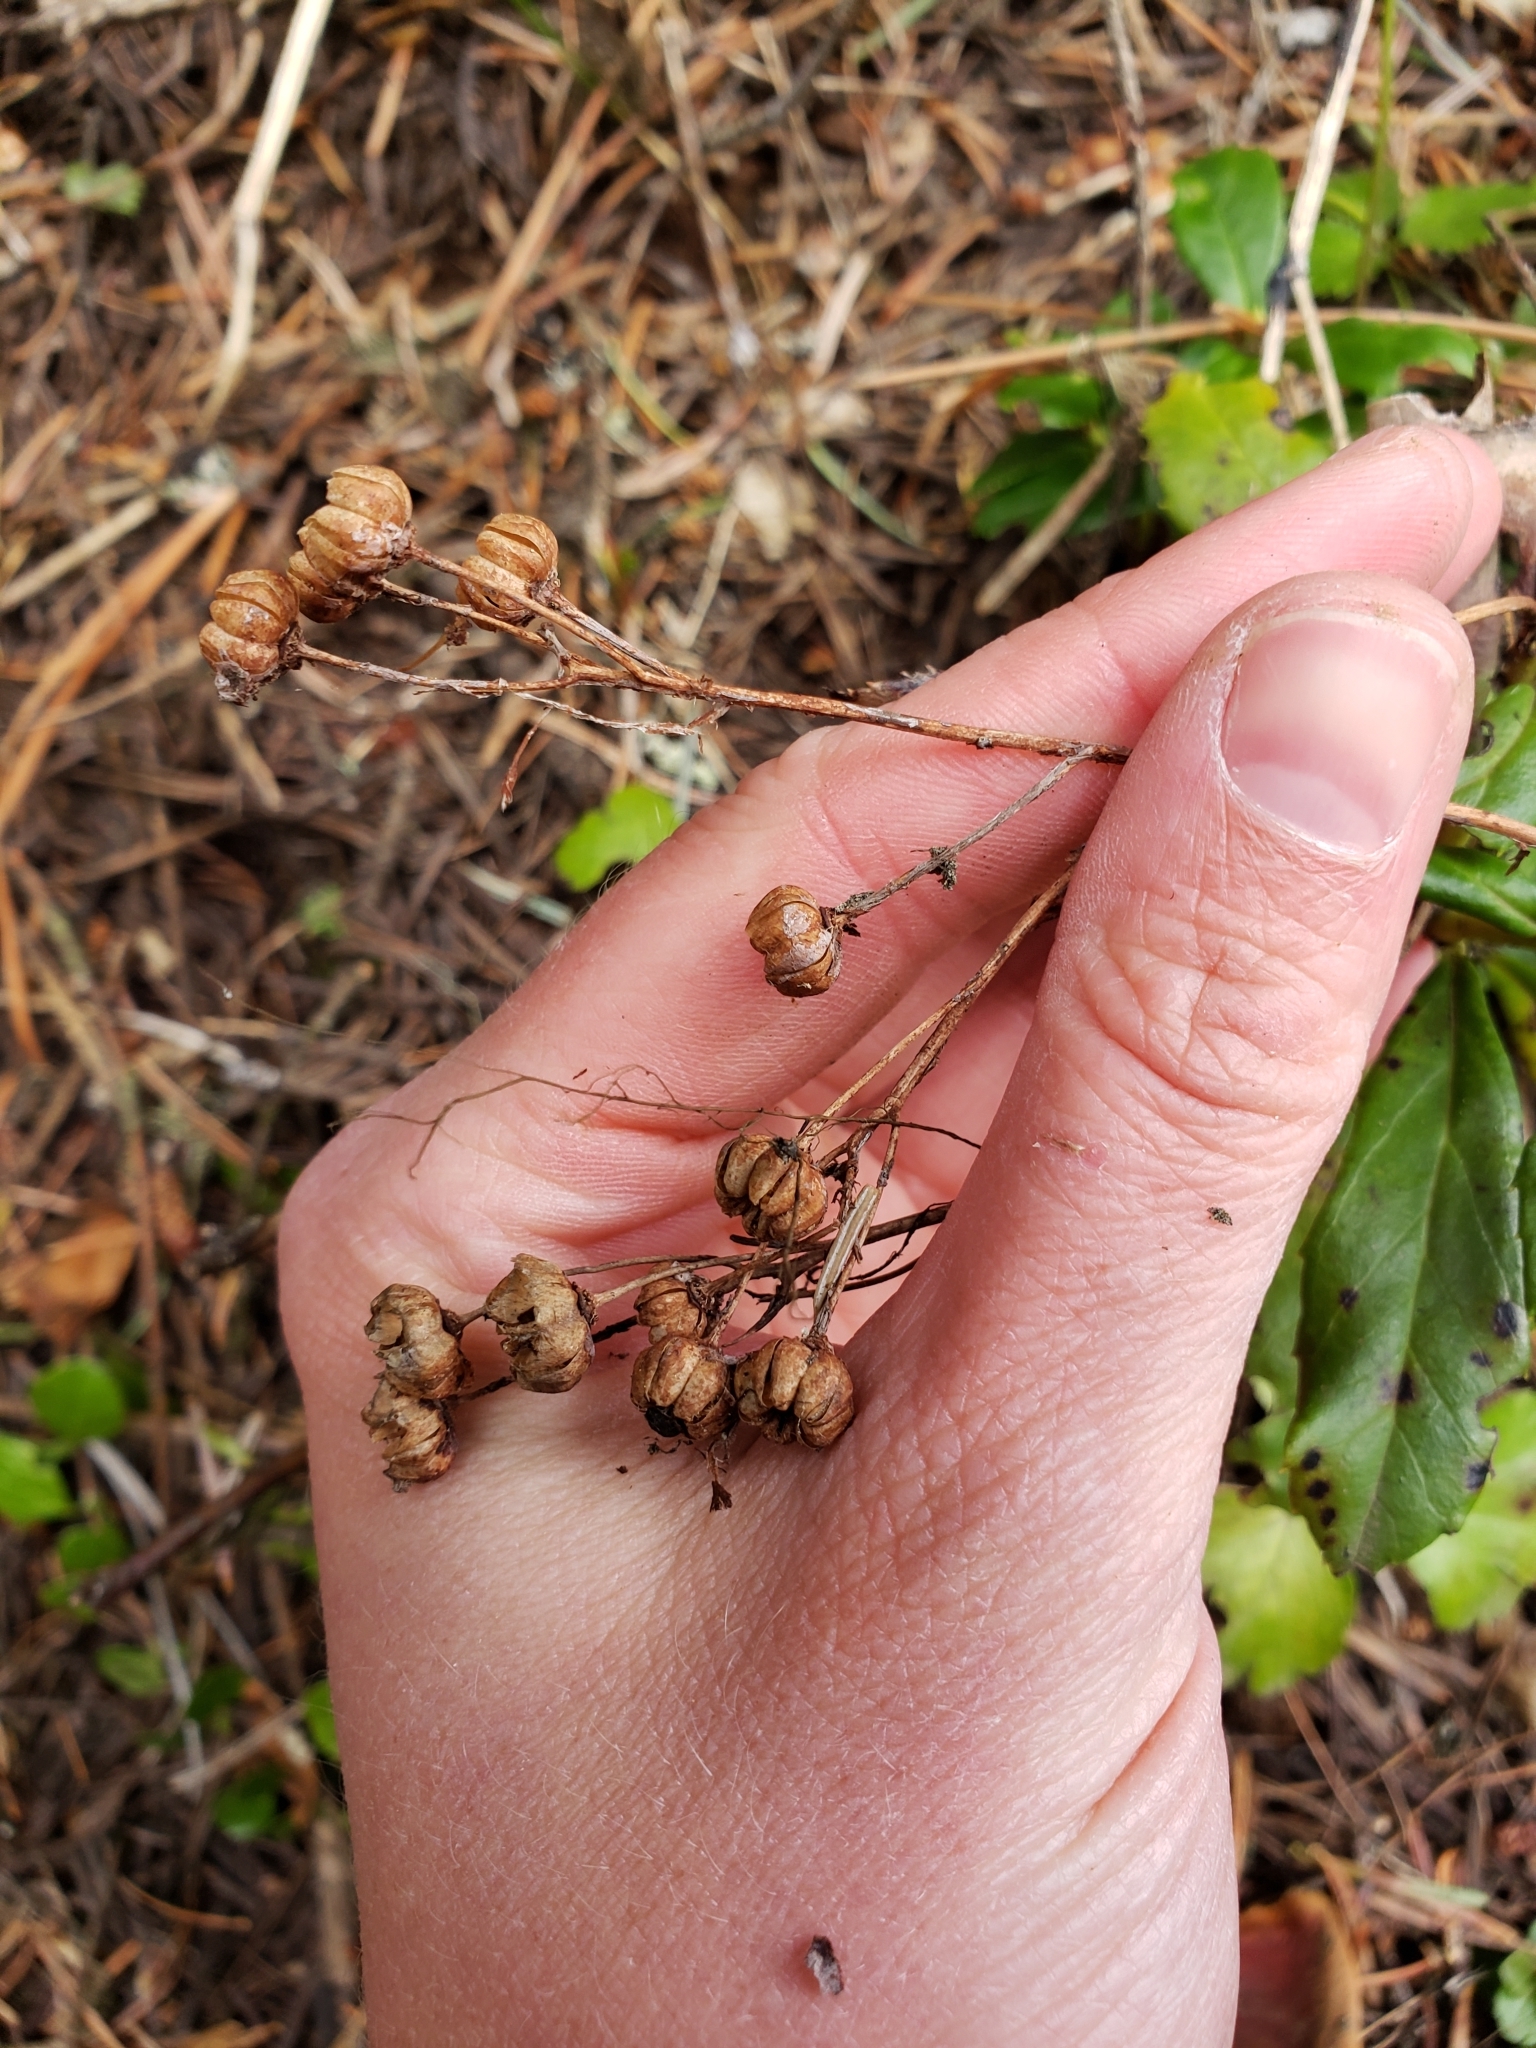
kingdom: Plantae
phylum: Tracheophyta
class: Magnoliopsida
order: Ericales
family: Ericaceae
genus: Chimaphila
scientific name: Chimaphila umbellata
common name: Pipsissewa
